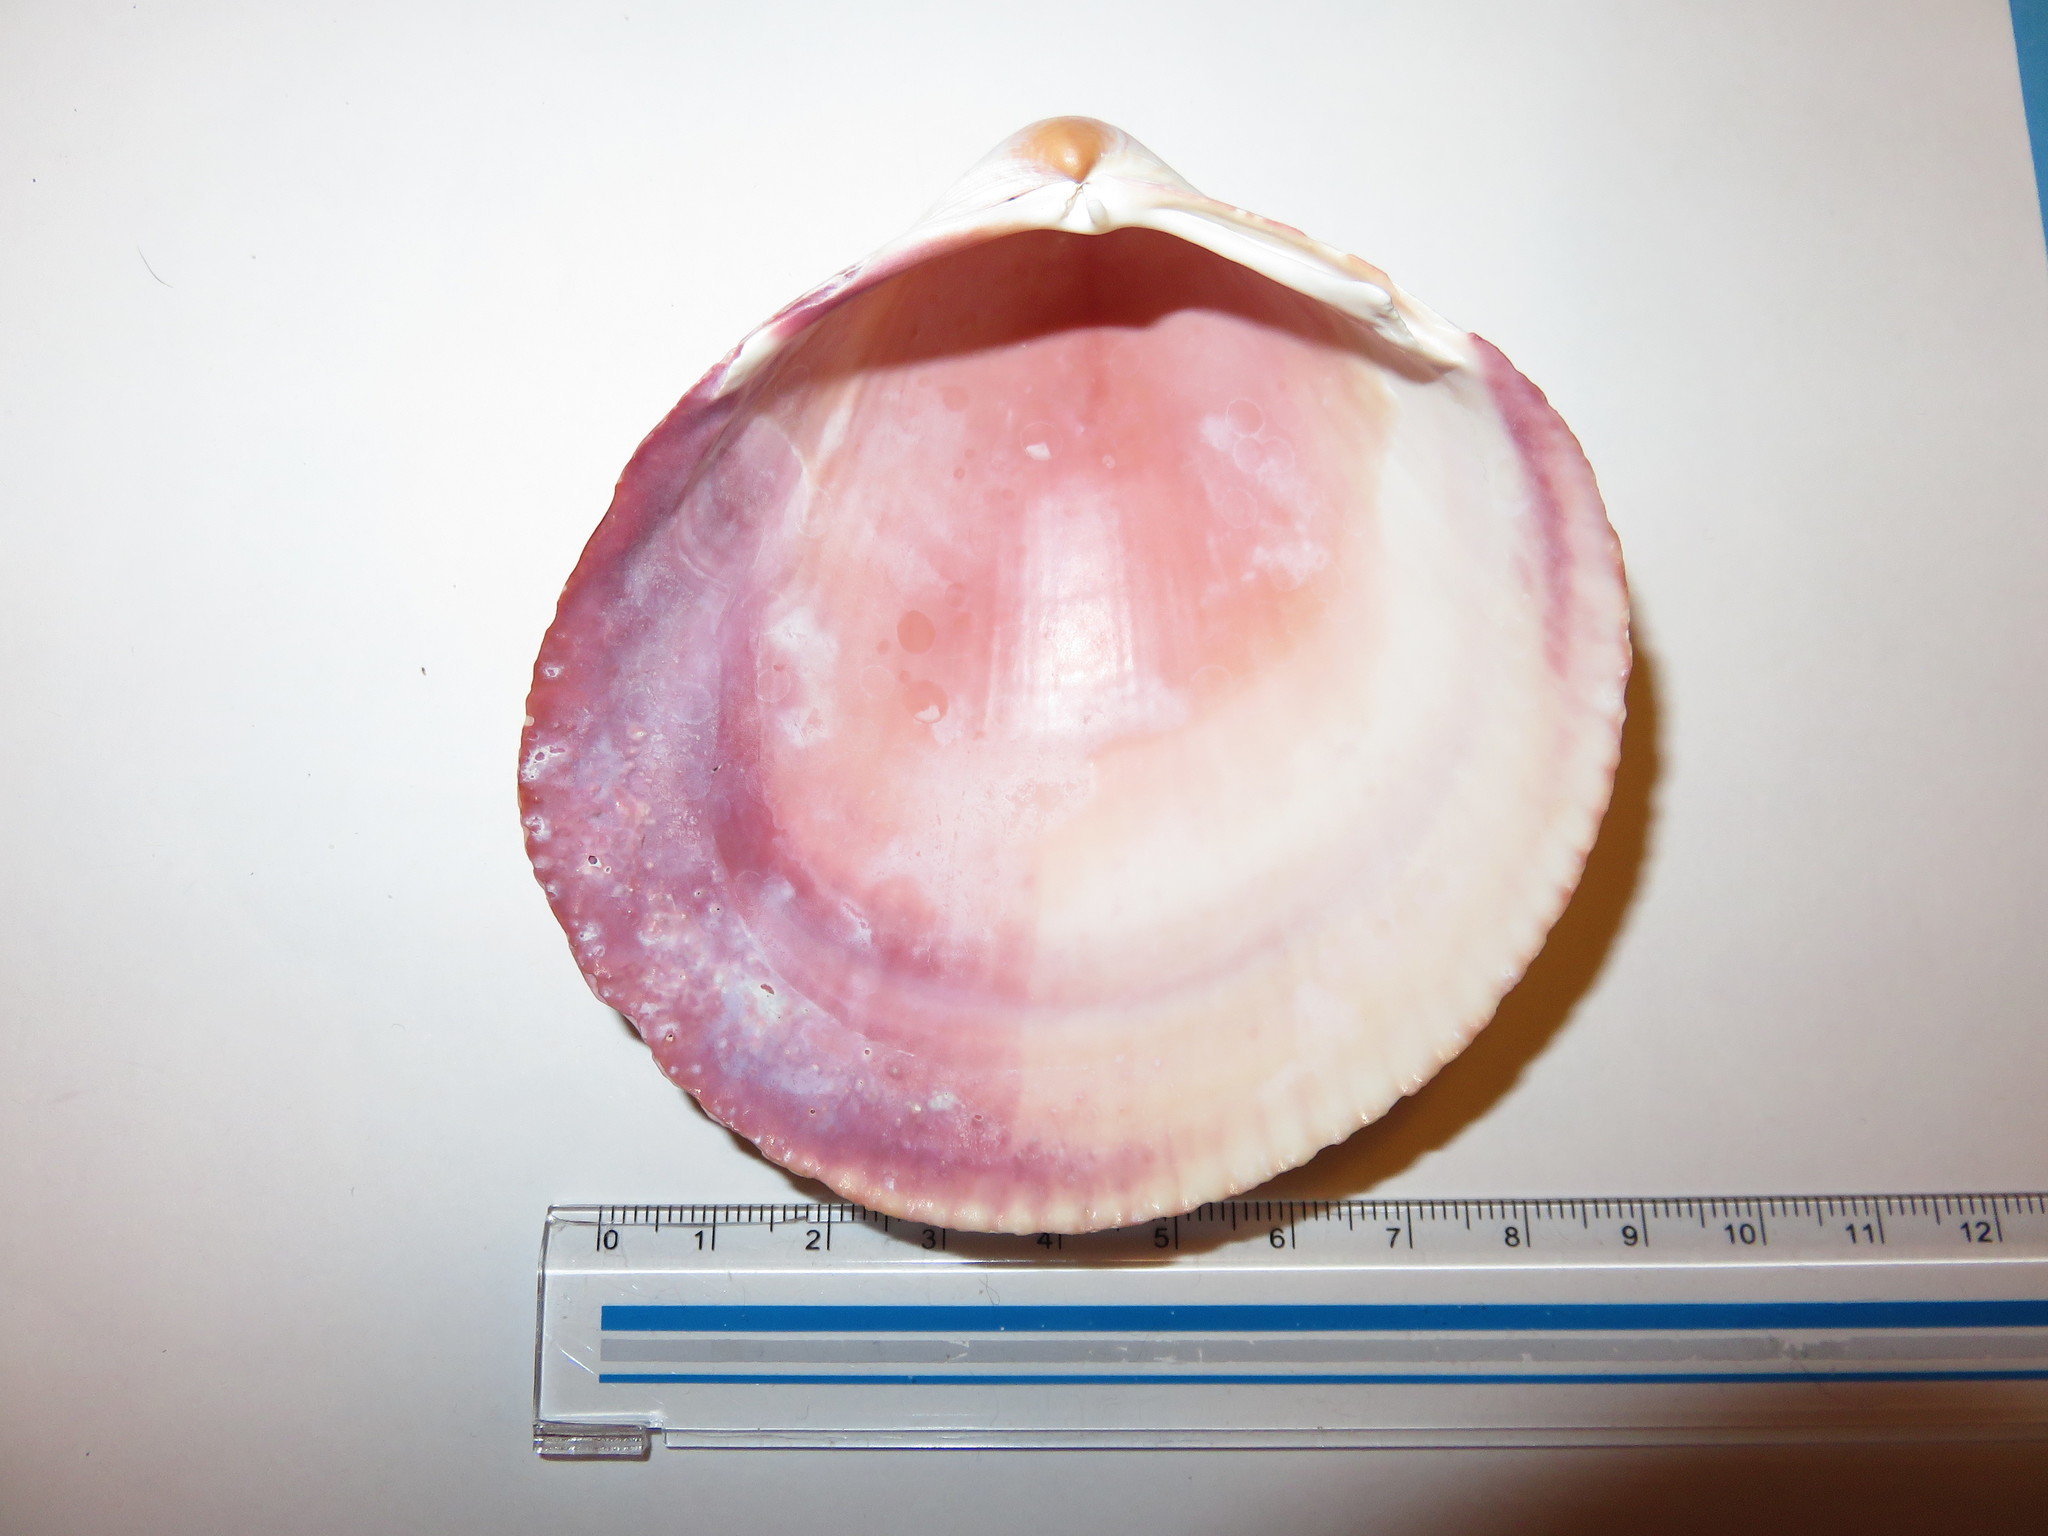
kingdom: Animalia
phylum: Mollusca
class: Bivalvia
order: Cardiida
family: Cardiidae
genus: Fulvia
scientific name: Fulvia mutica
